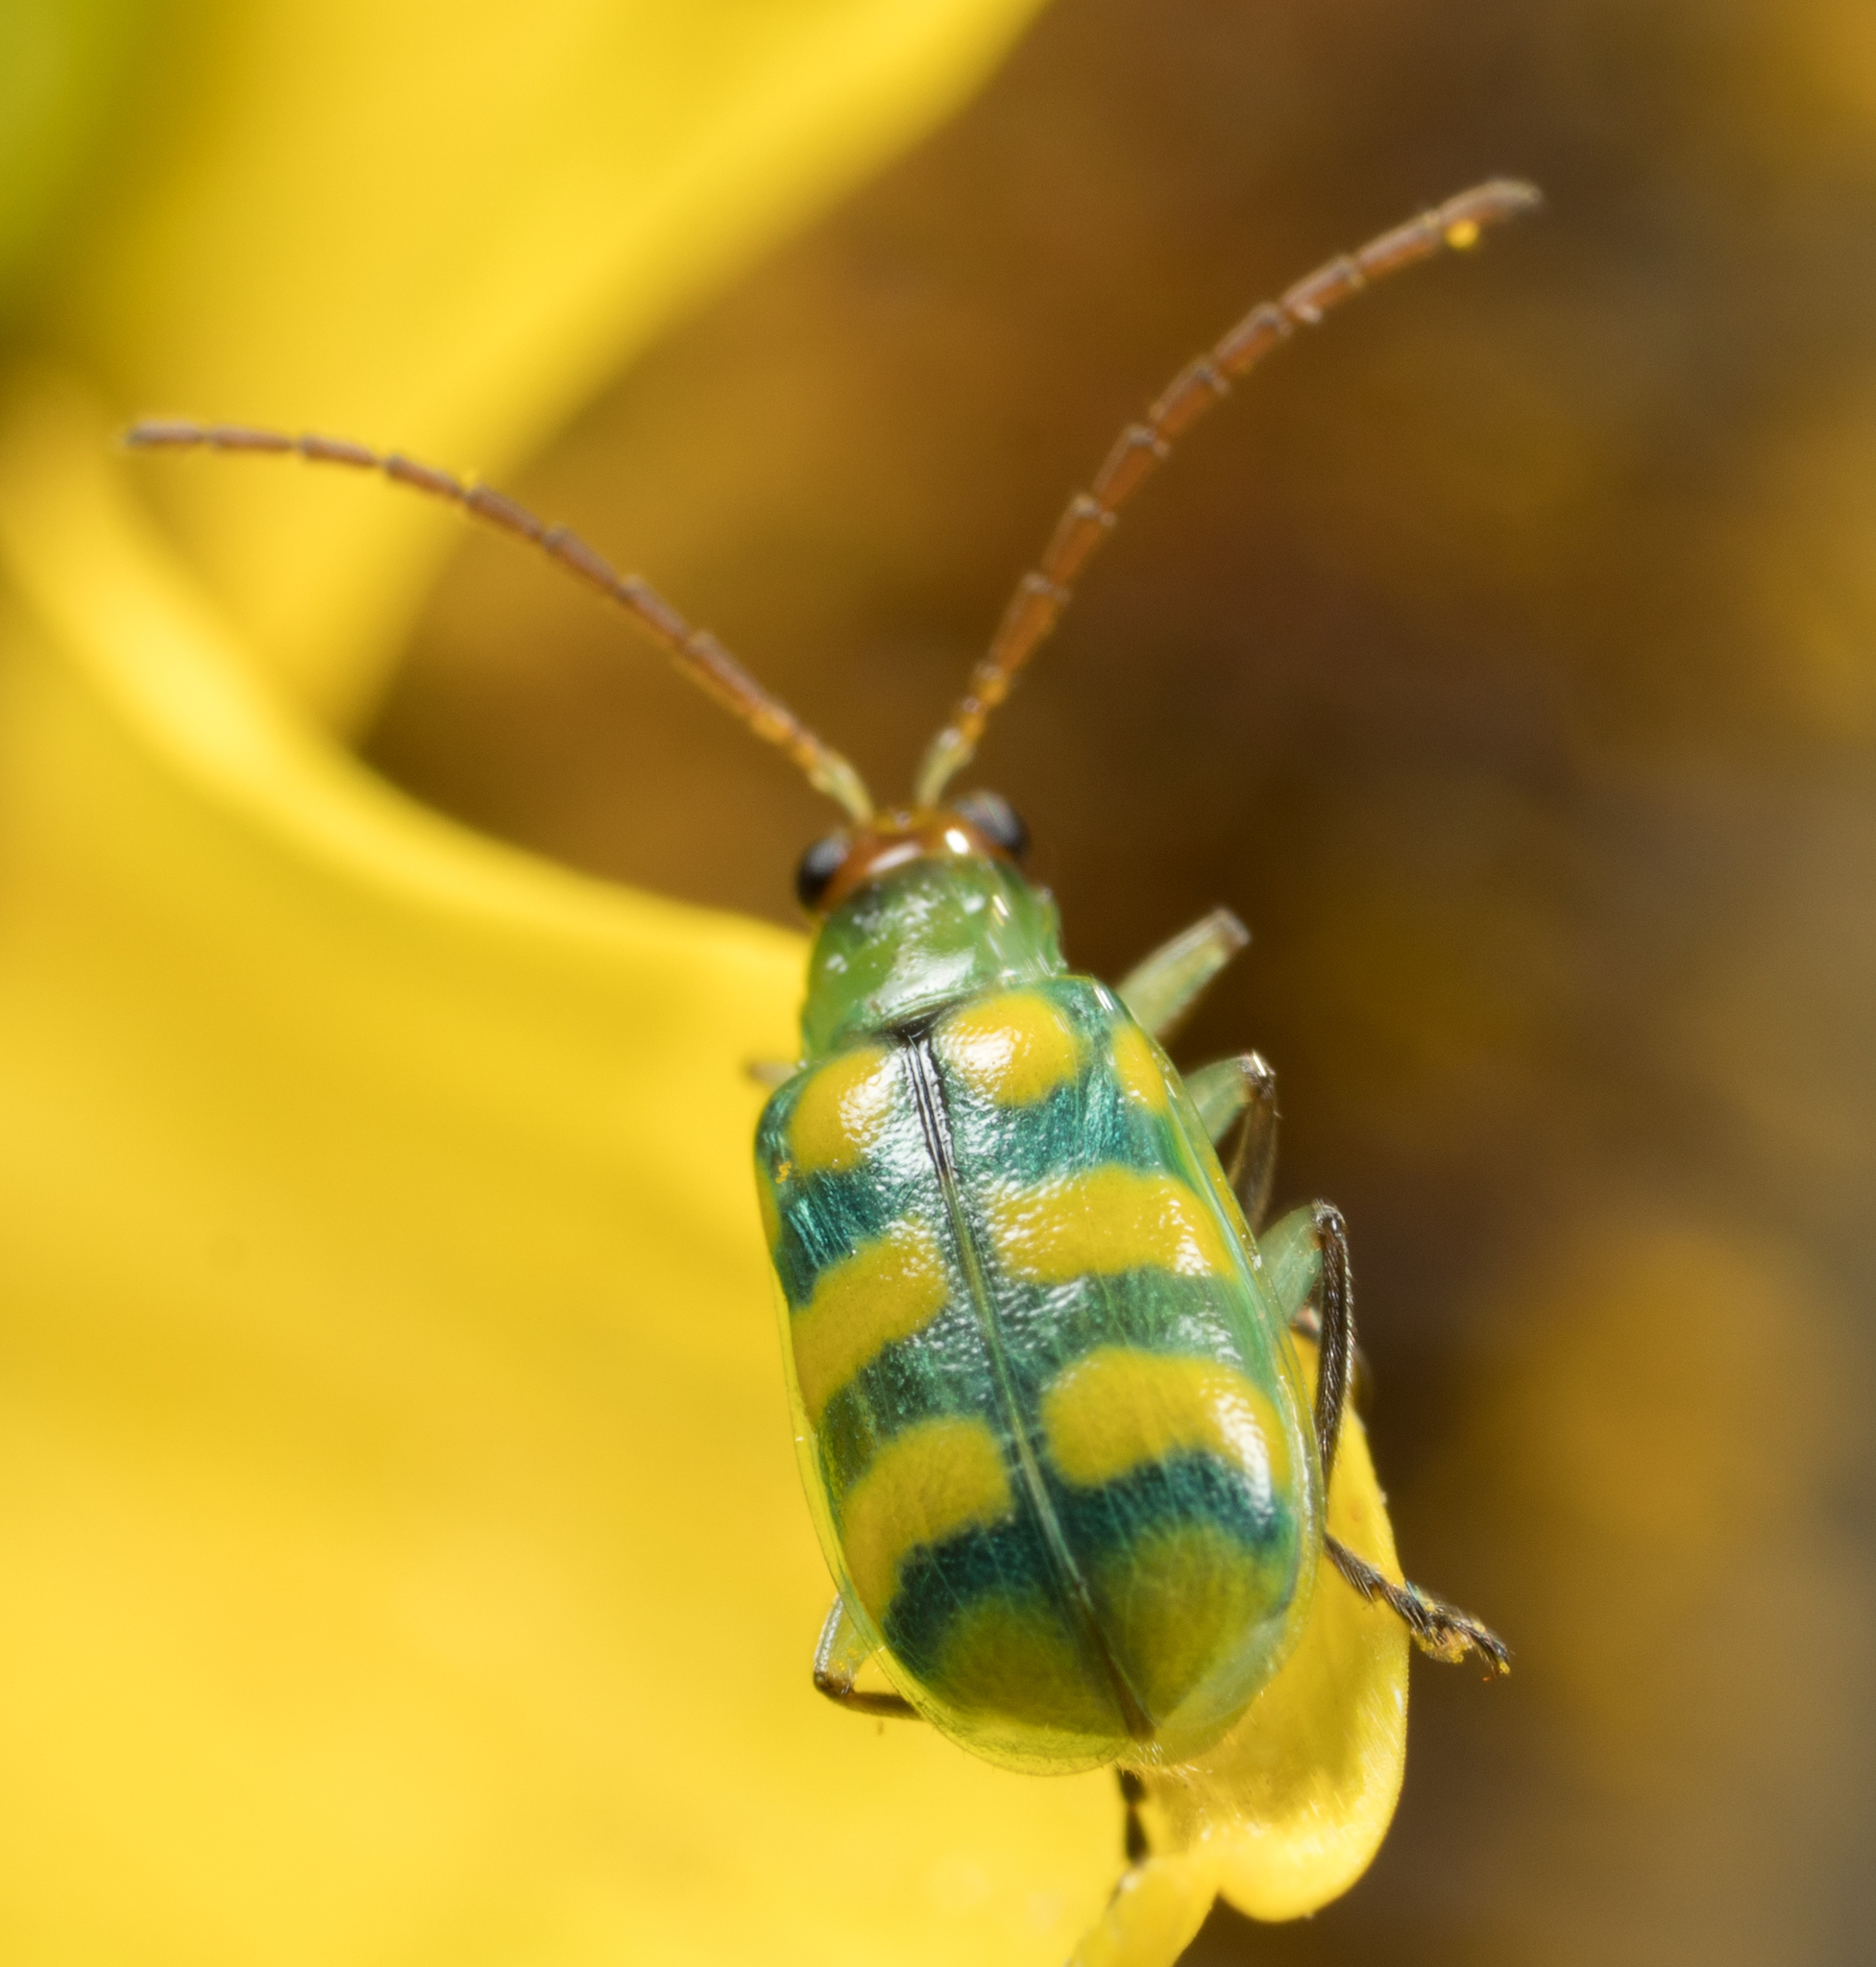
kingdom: Animalia
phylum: Arthropoda
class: Insecta
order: Coleoptera
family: Chrysomelidae
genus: Diabrotica
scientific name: Diabrotica balteata
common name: Leaf beetle
